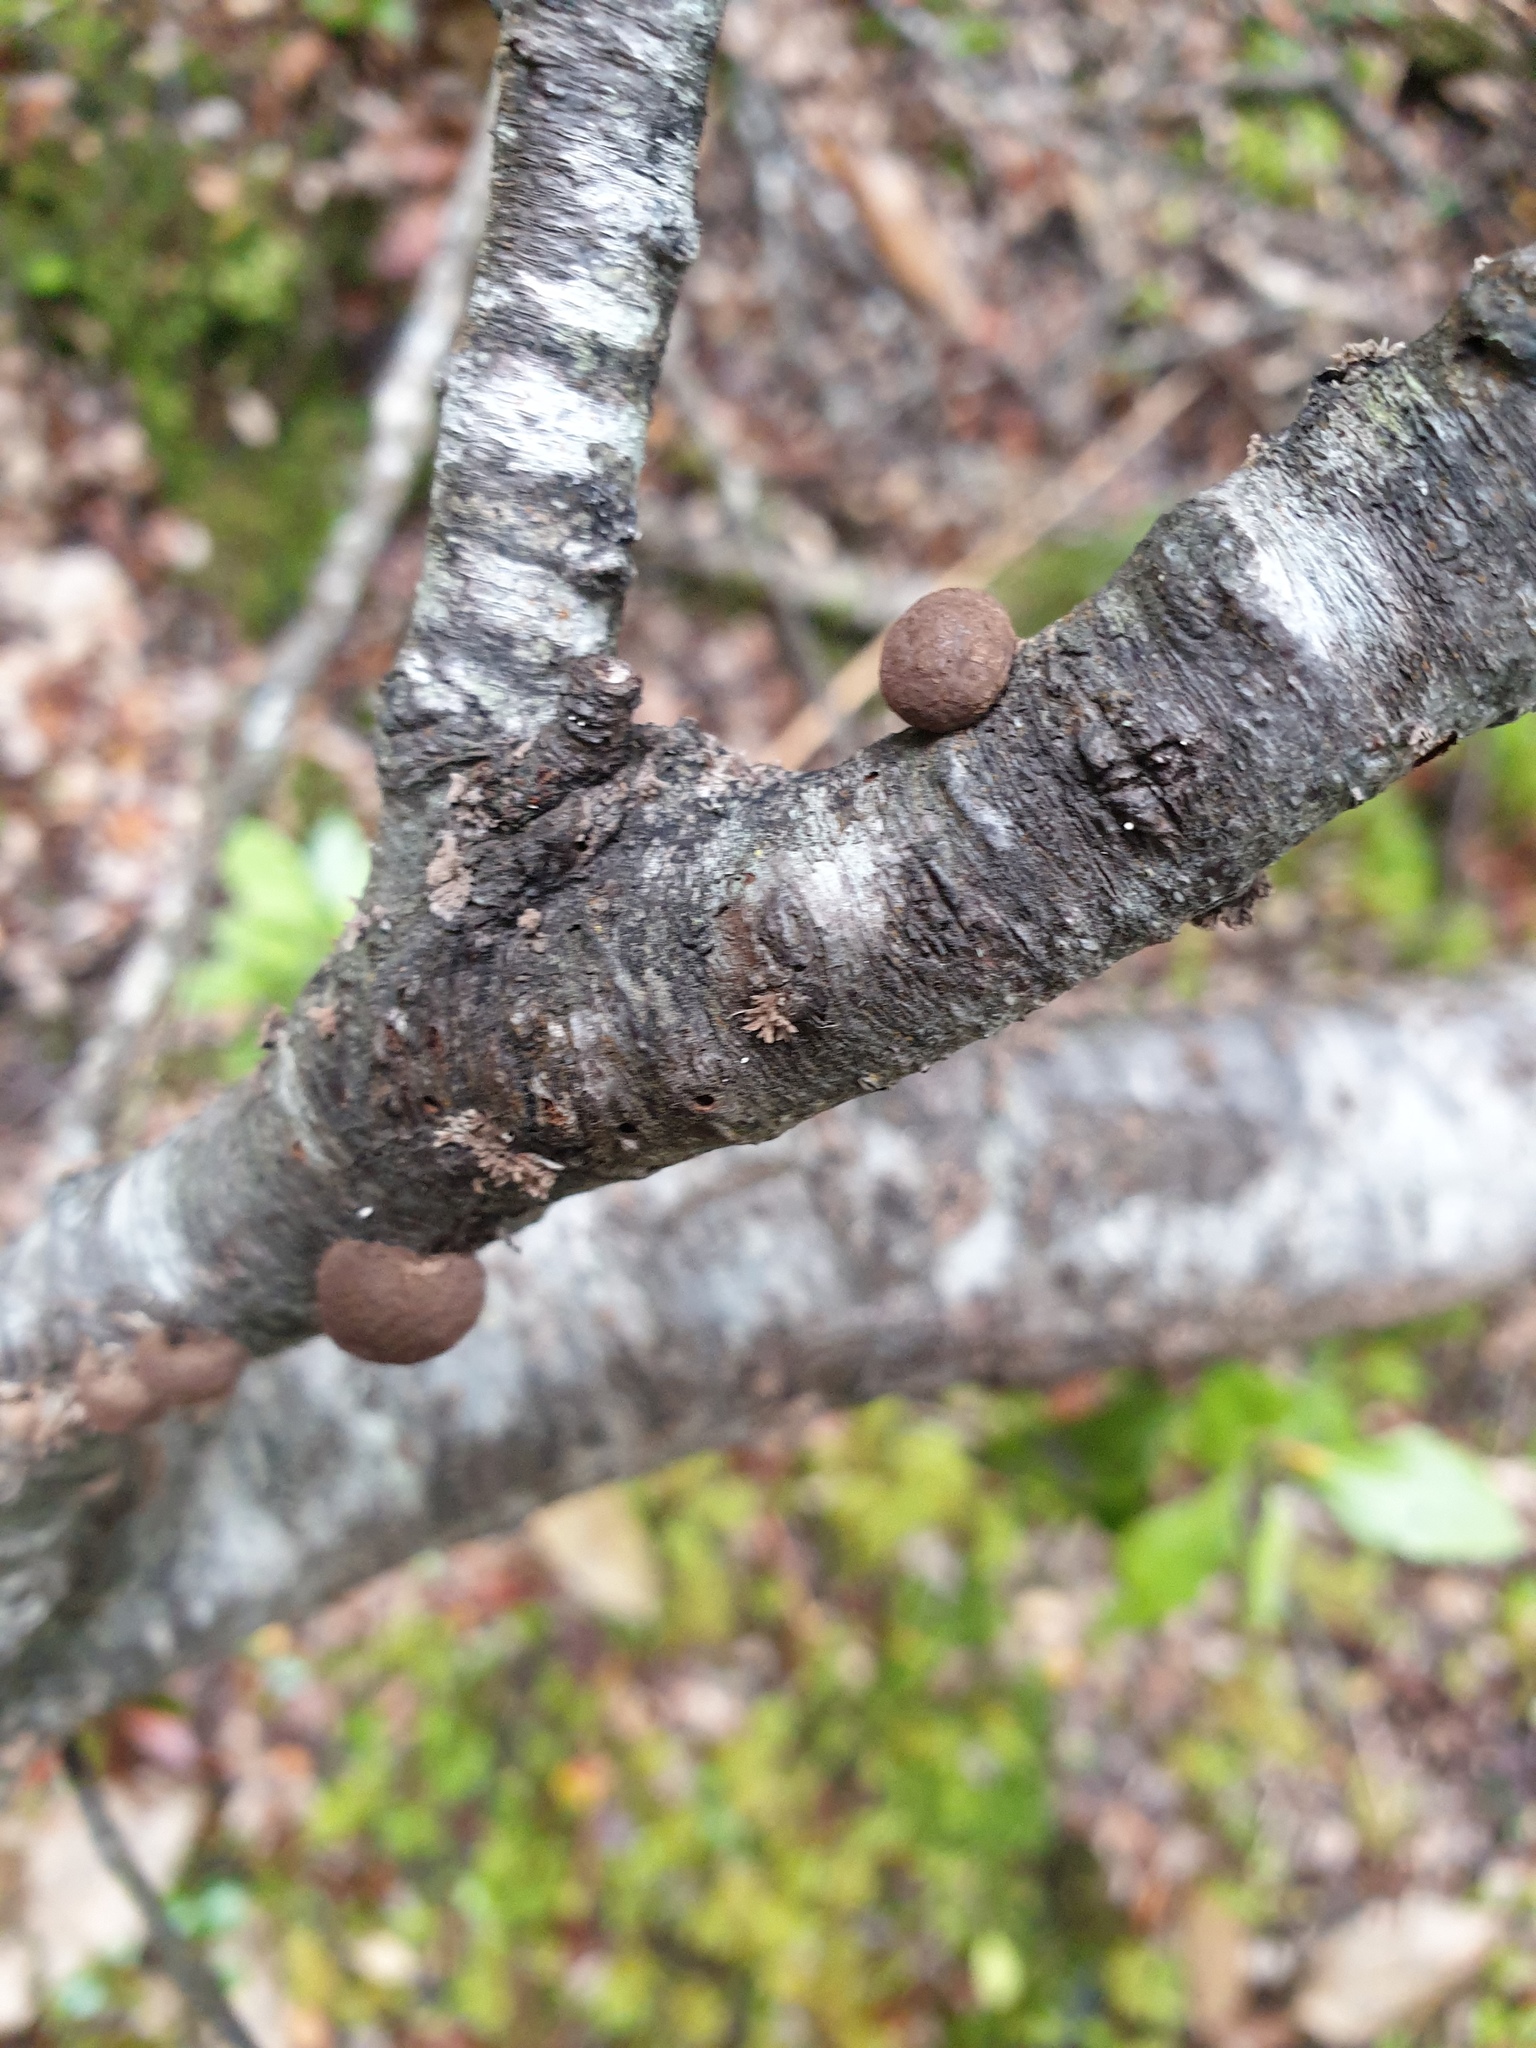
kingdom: Fungi
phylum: Ascomycota
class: Sordariomycetes
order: Xylariales
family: Hypoxylaceae
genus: Daldinia
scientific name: Daldinia
